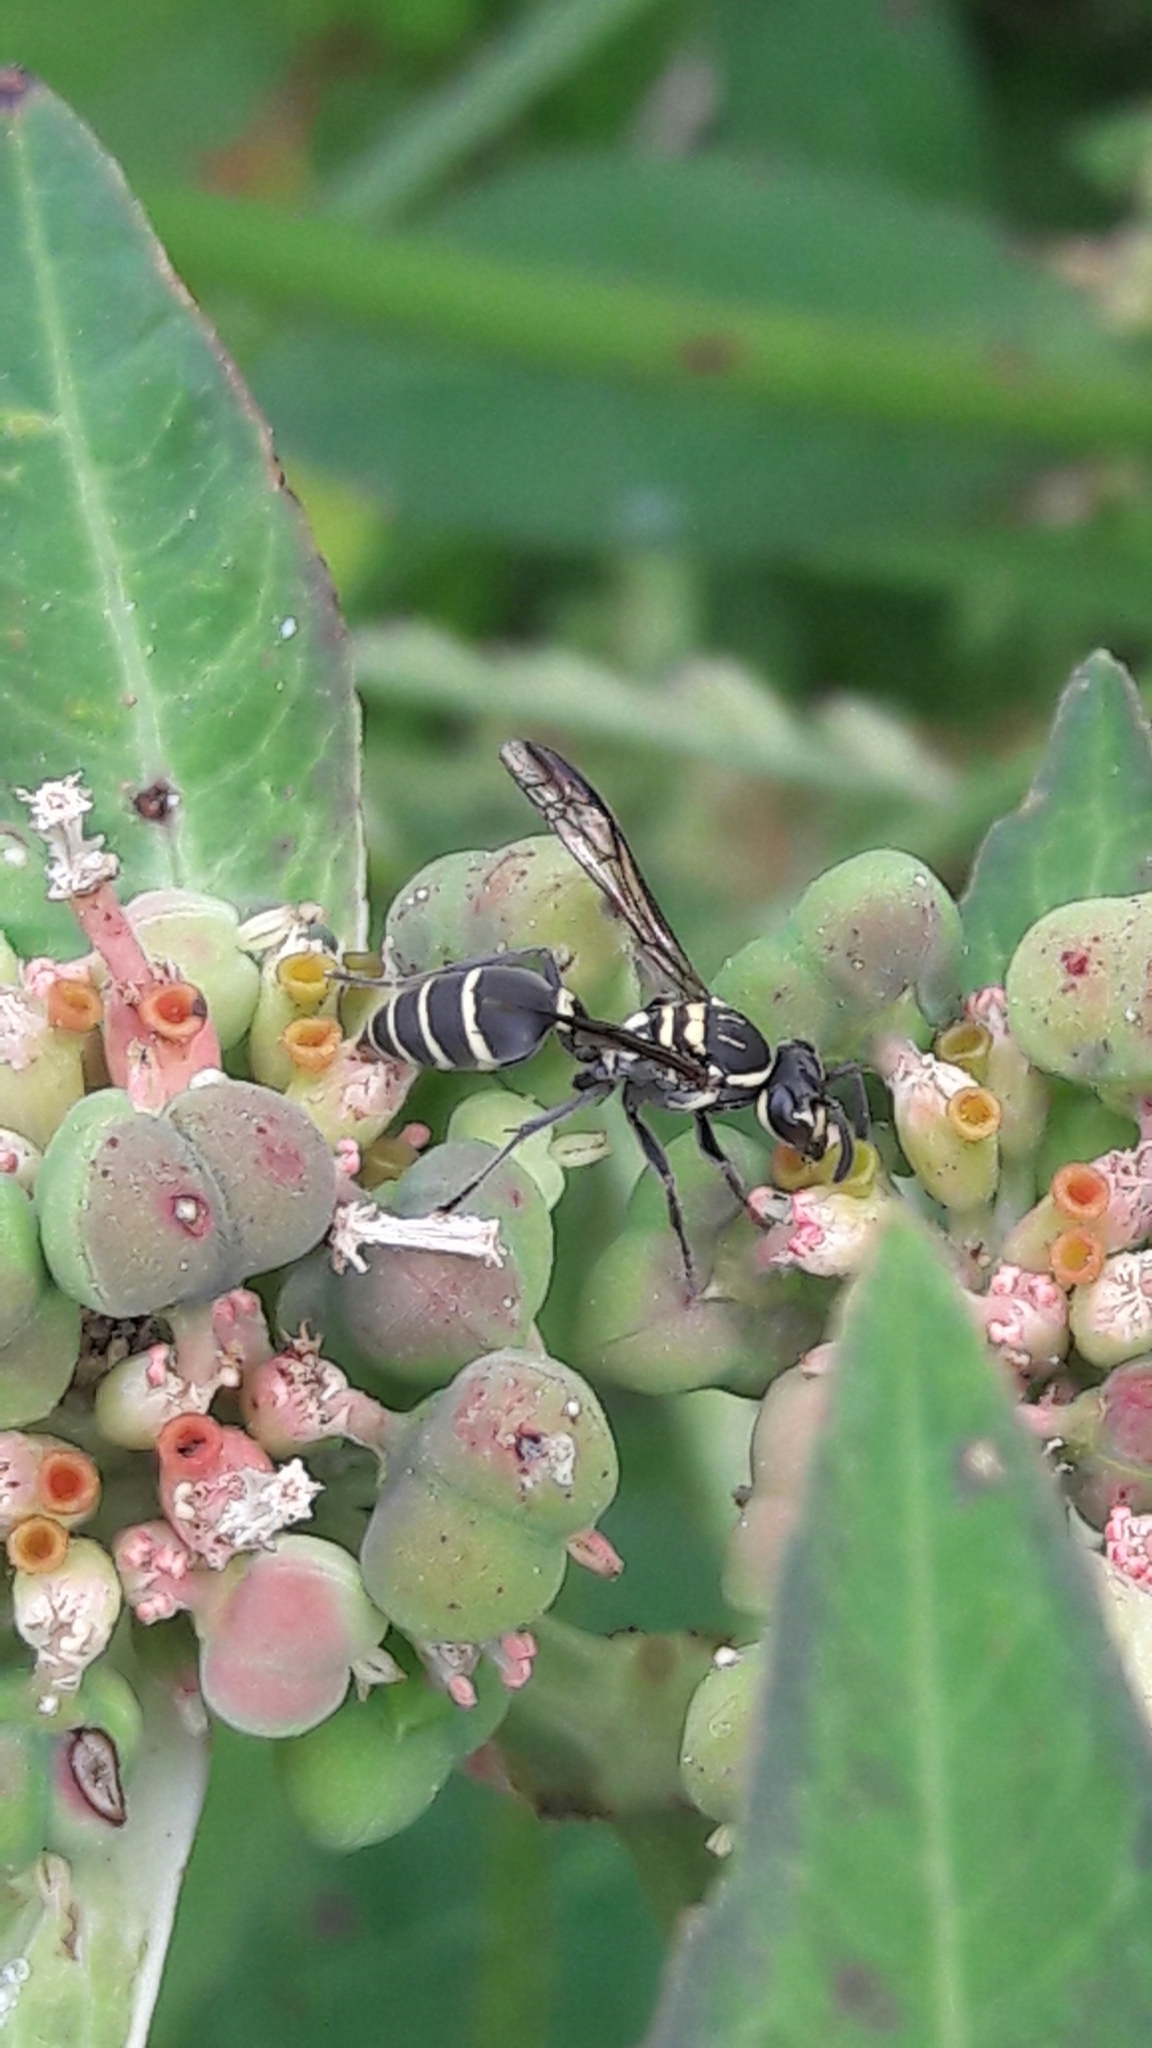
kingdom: Animalia
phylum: Arthropoda
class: Insecta
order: Hymenoptera
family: Eumenidae
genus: Polybia
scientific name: Polybia occidentalis
